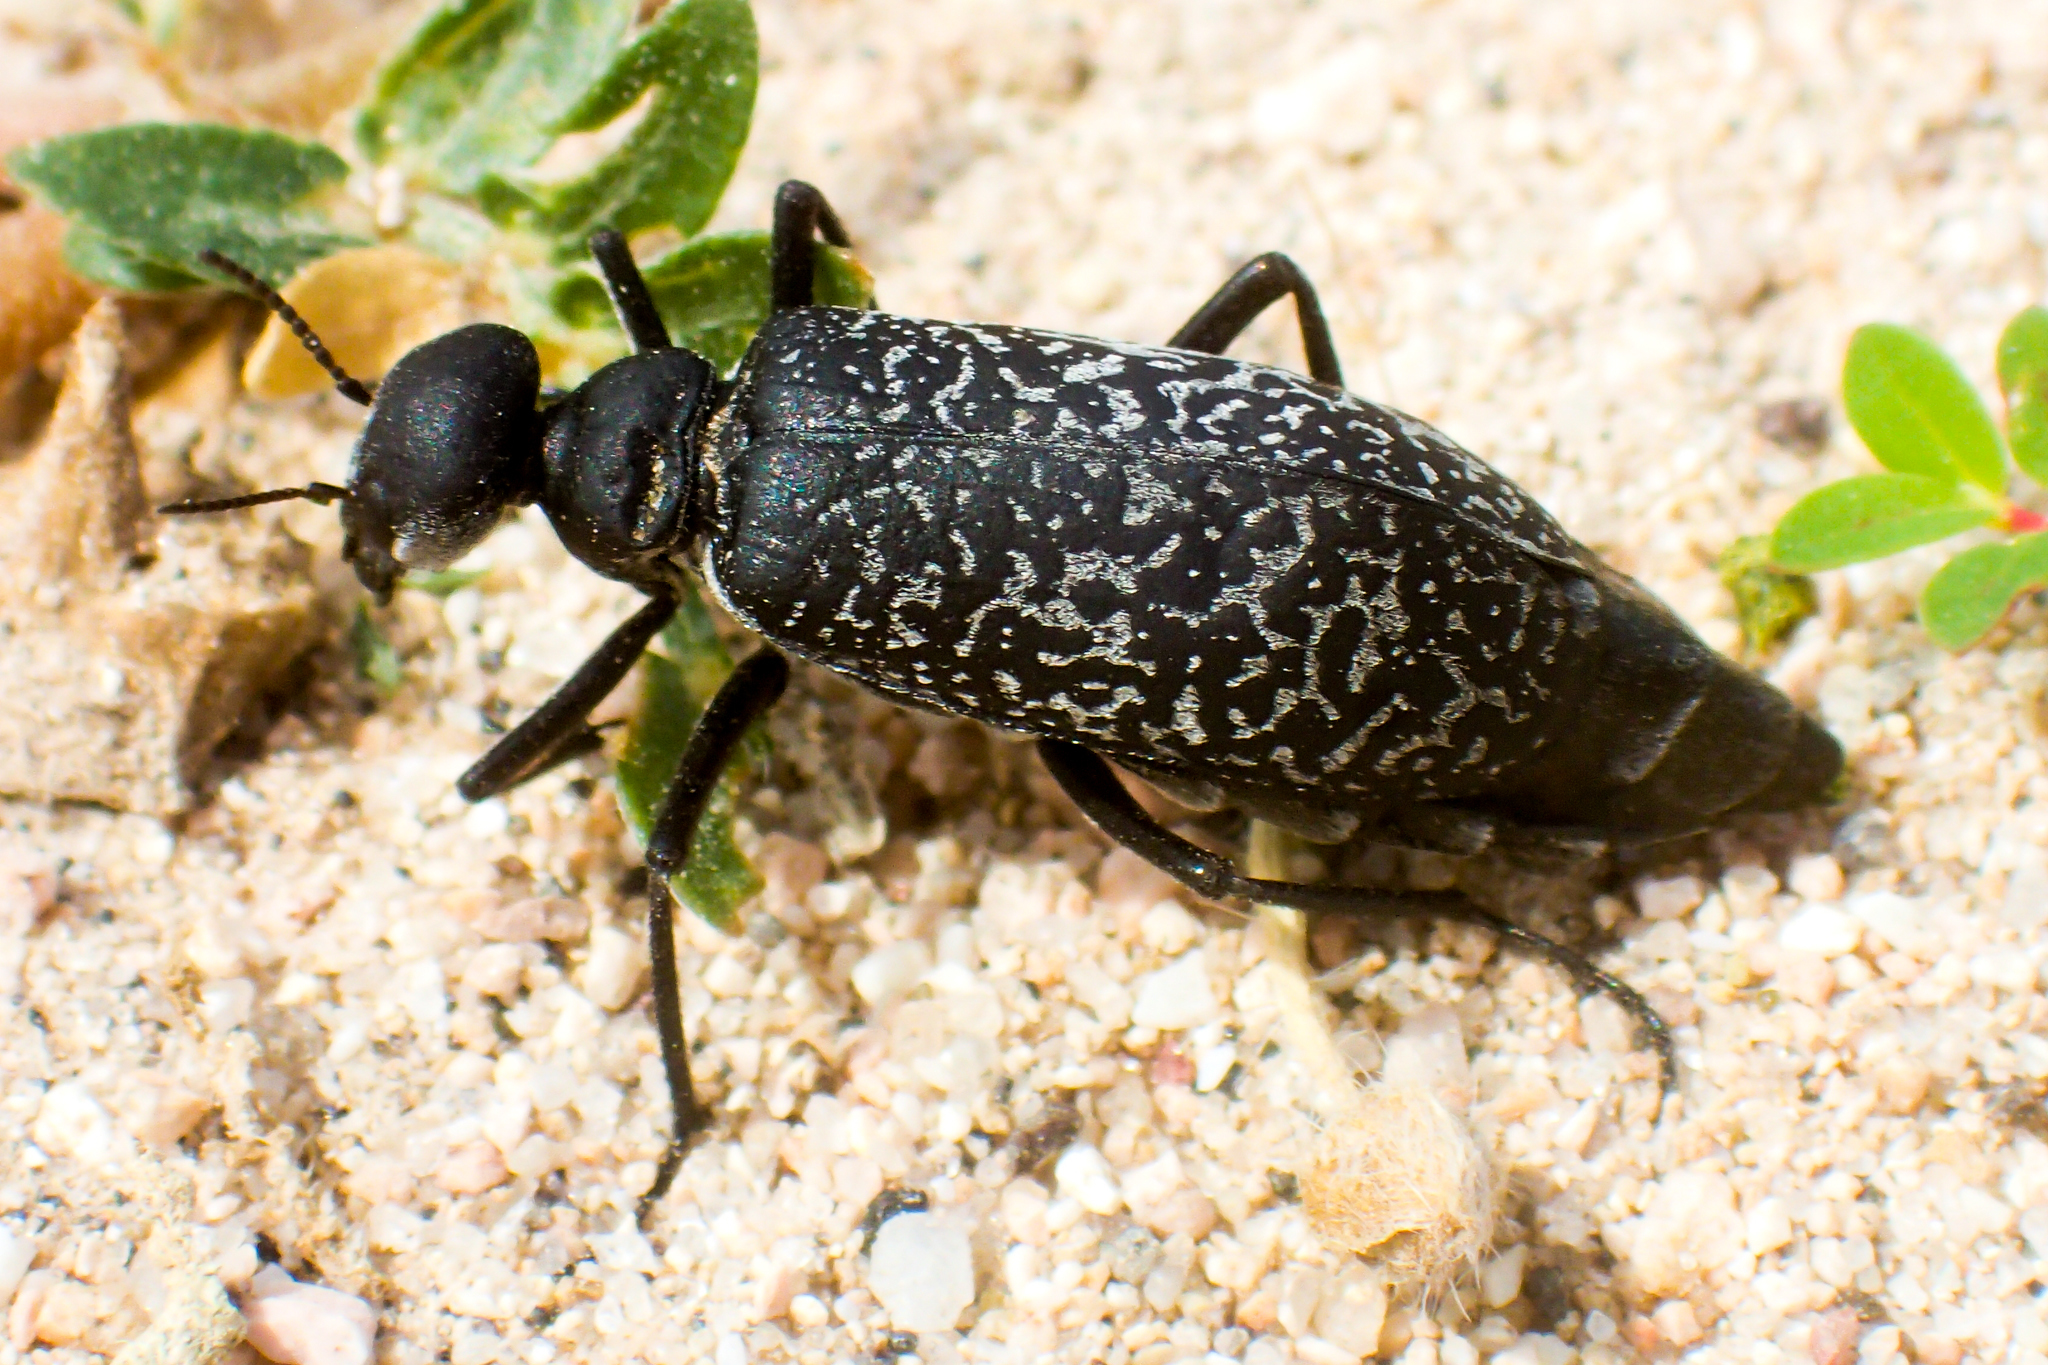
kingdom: Animalia
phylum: Arthropoda
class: Insecta
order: Coleoptera
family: Meloidae
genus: Phodaga
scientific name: Phodaga marmorata
